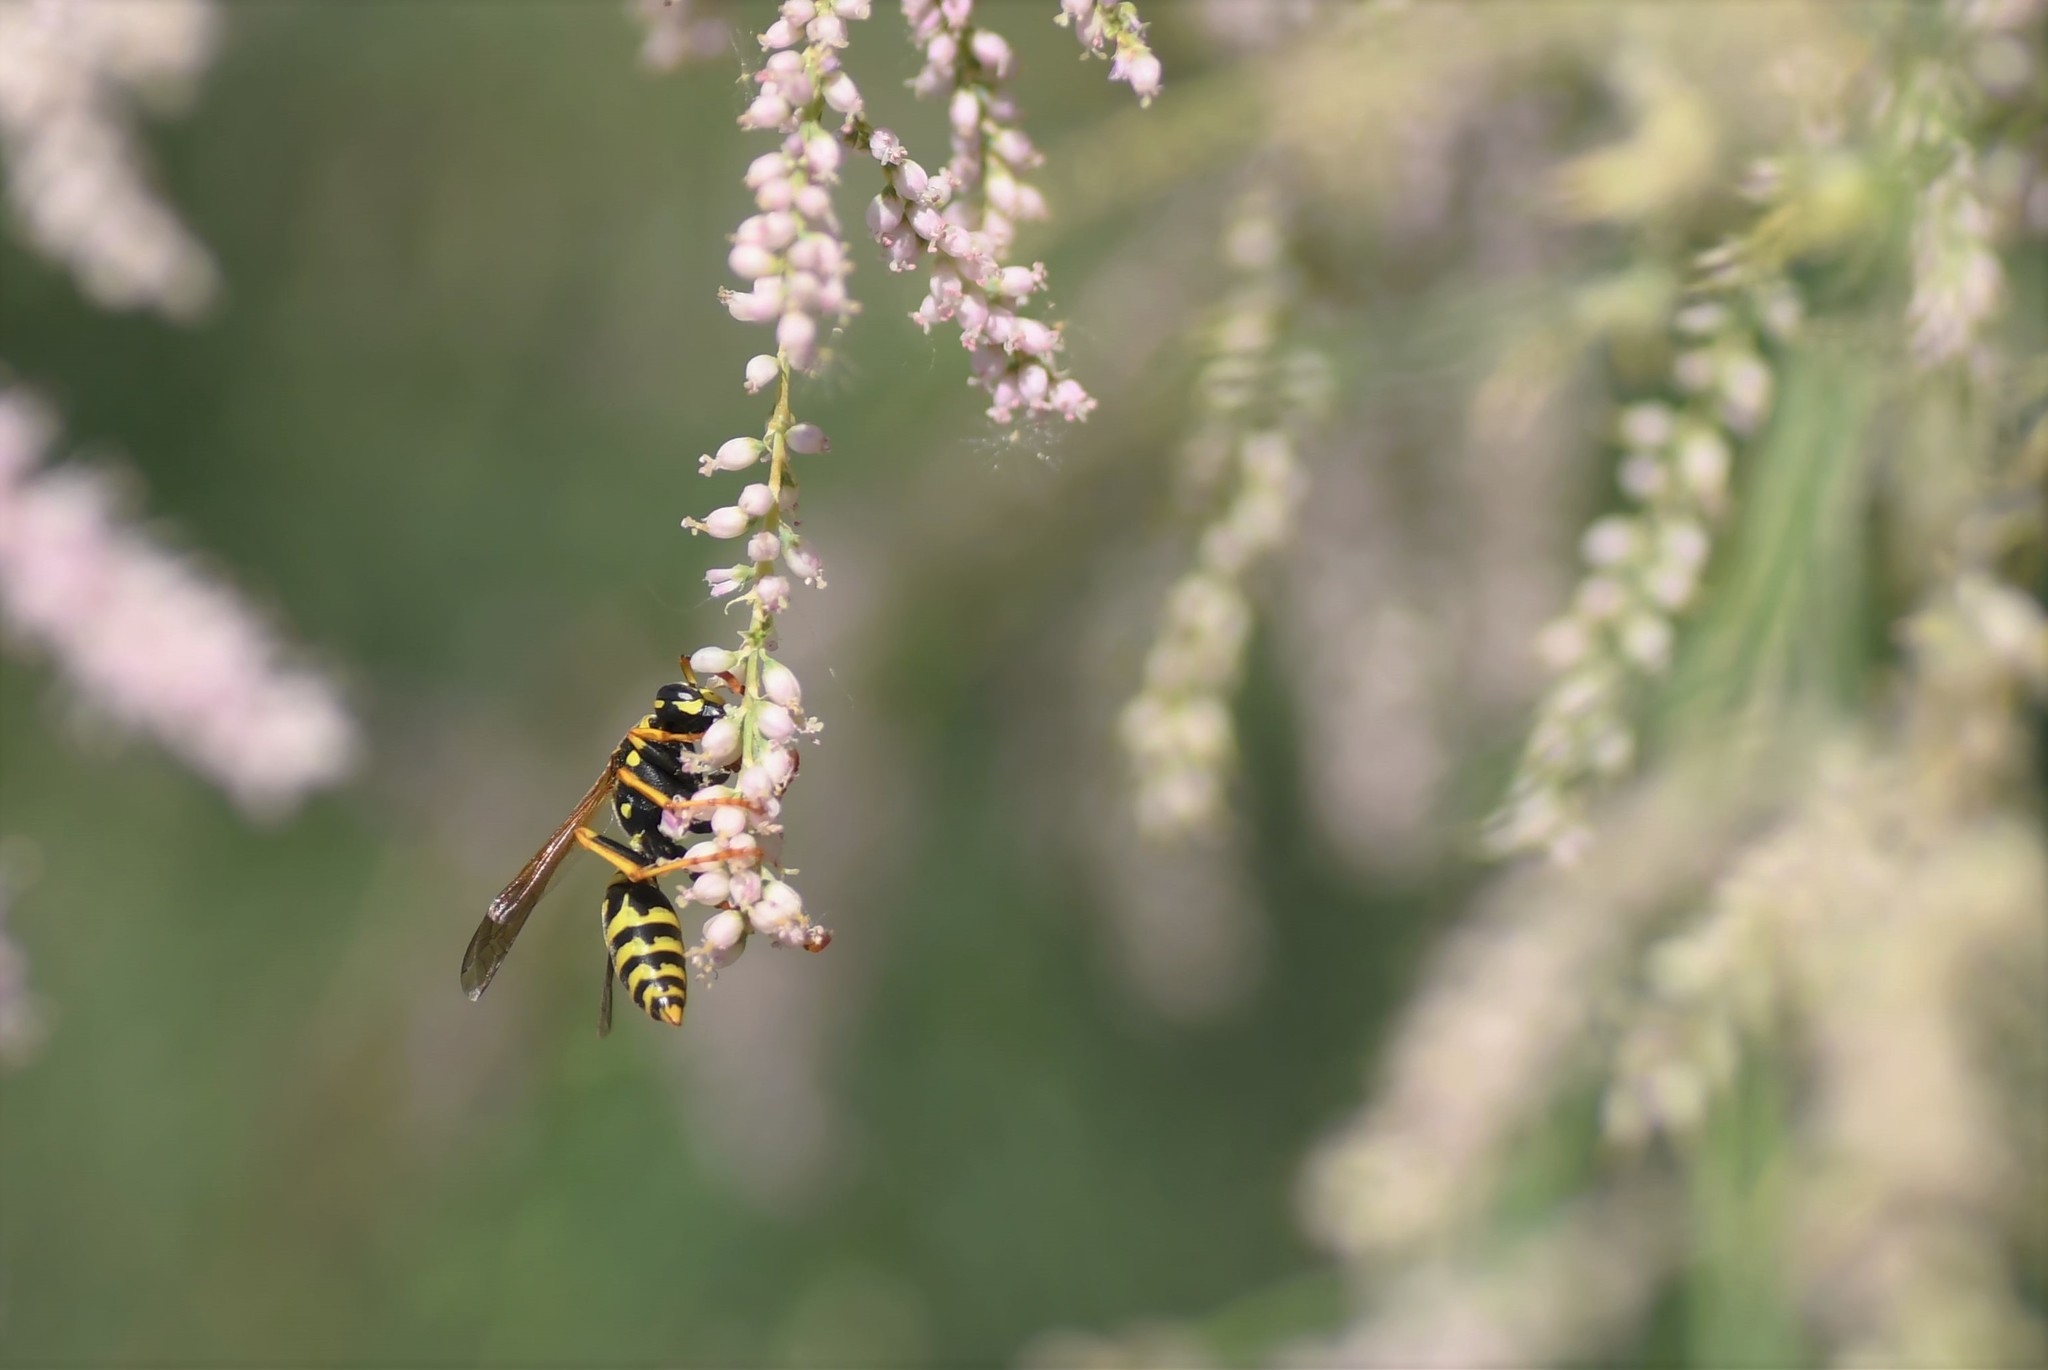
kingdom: Animalia
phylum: Arthropoda
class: Insecta
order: Hymenoptera
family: Eumenidae
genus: Polistes
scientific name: Polistes dominula
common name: Paper wasp
